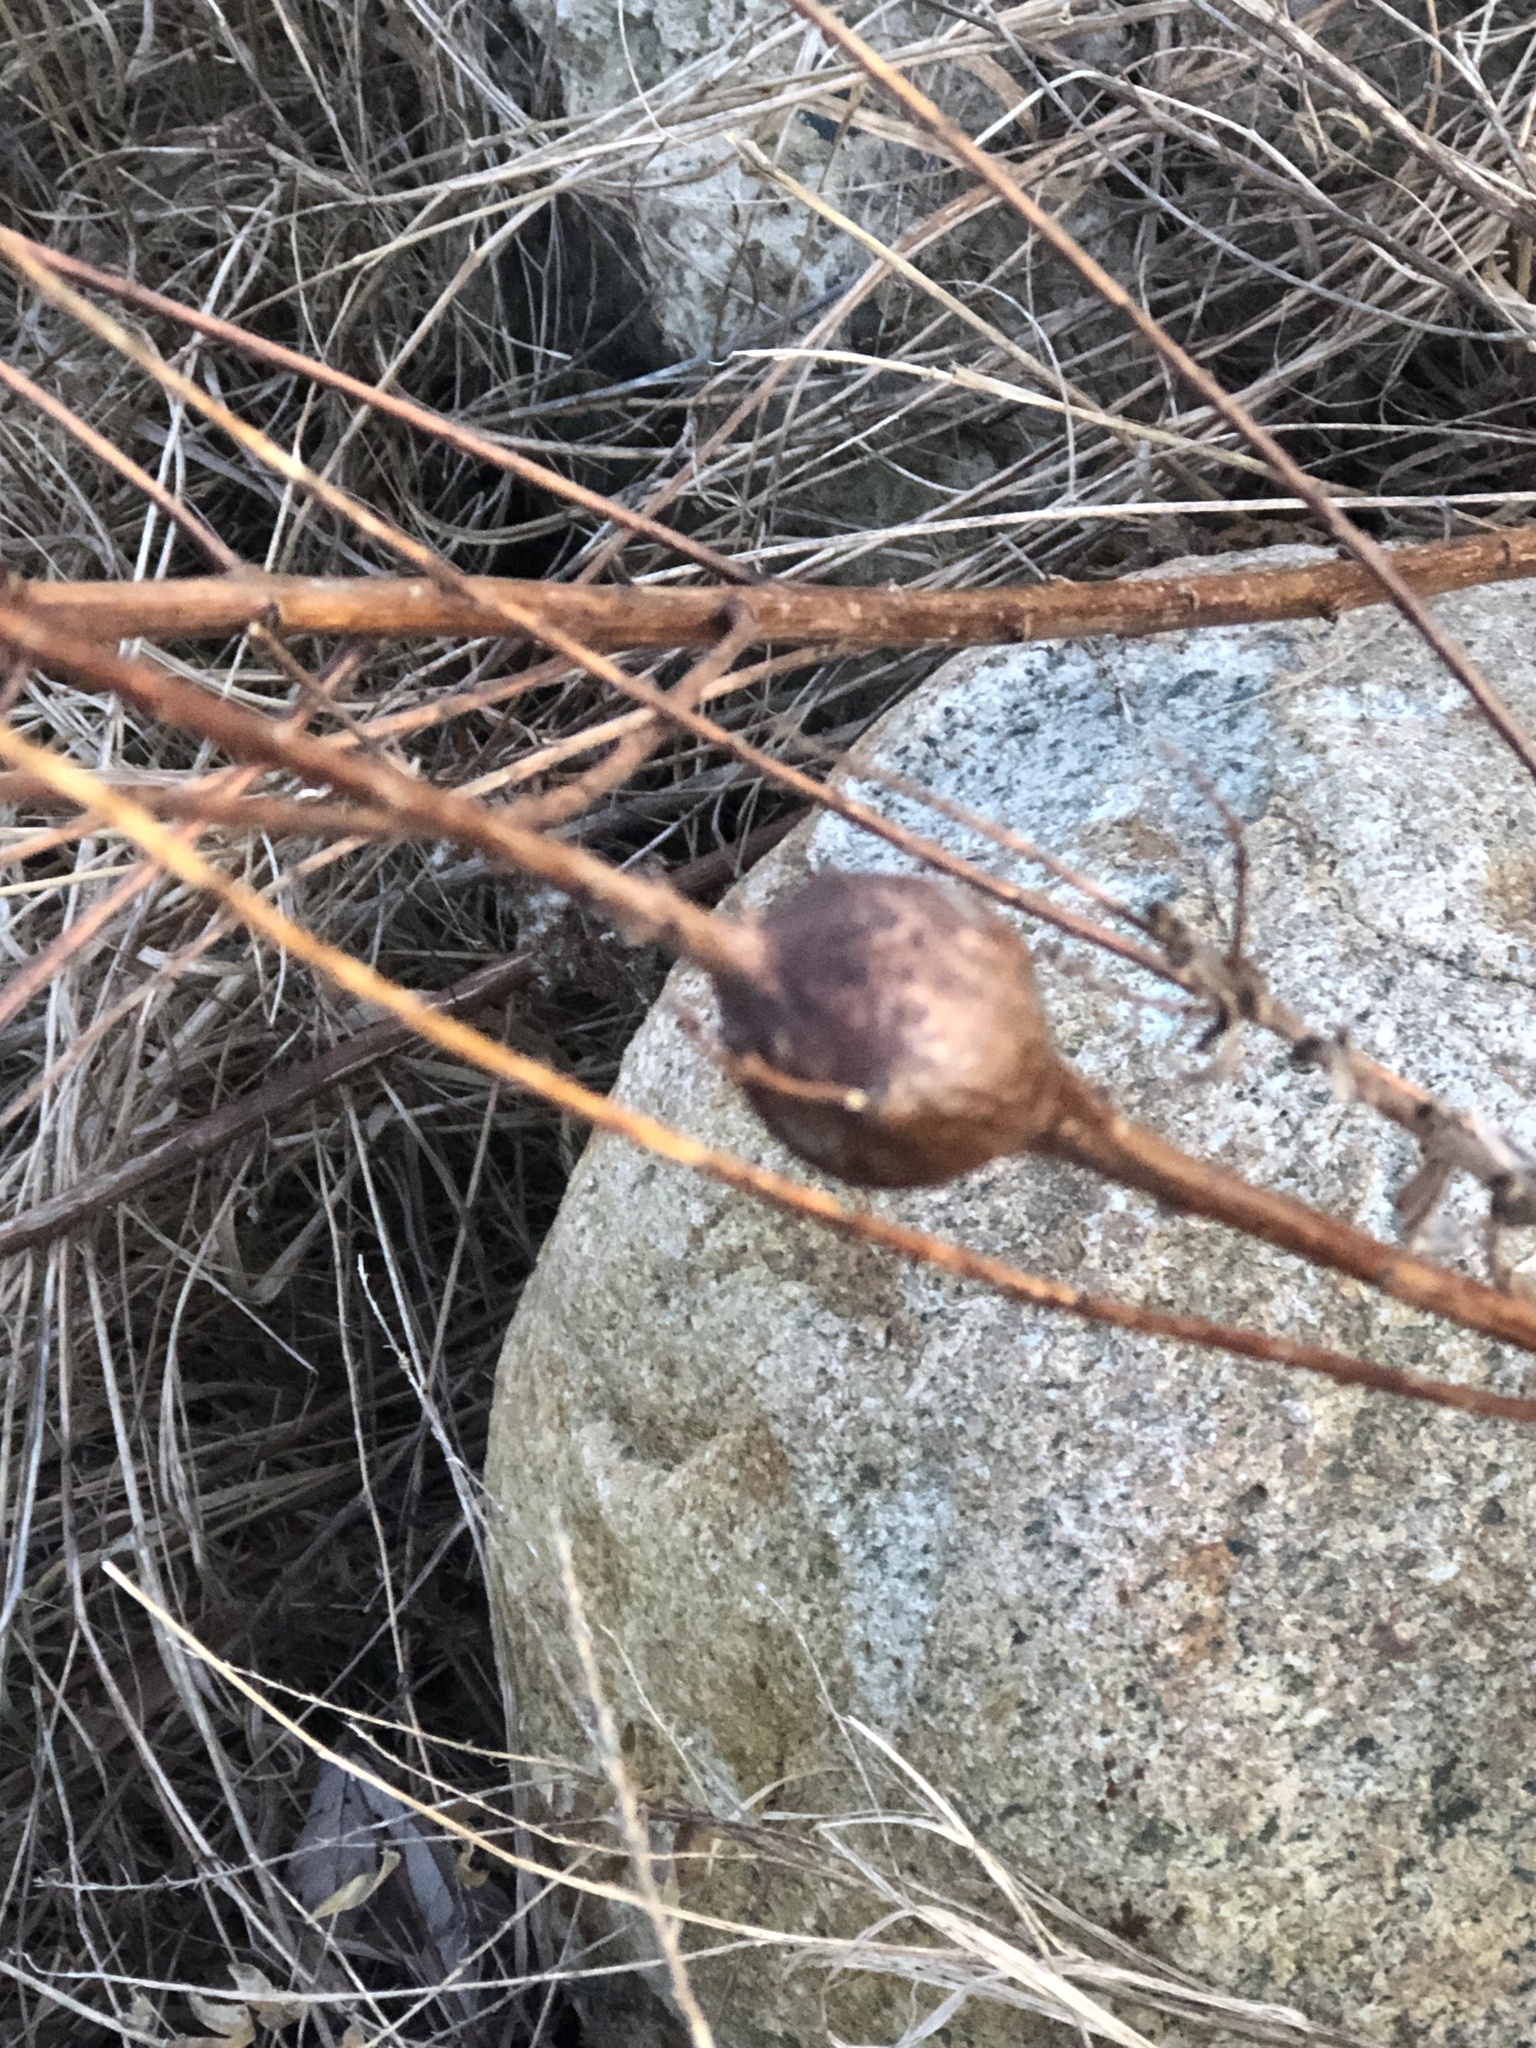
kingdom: Animalia
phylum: Arthropoda
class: Insecta
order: Diptera
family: Tephritidae
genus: Eurosta
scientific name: Eurosta solidaginis
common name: Goldenrod gall fly
